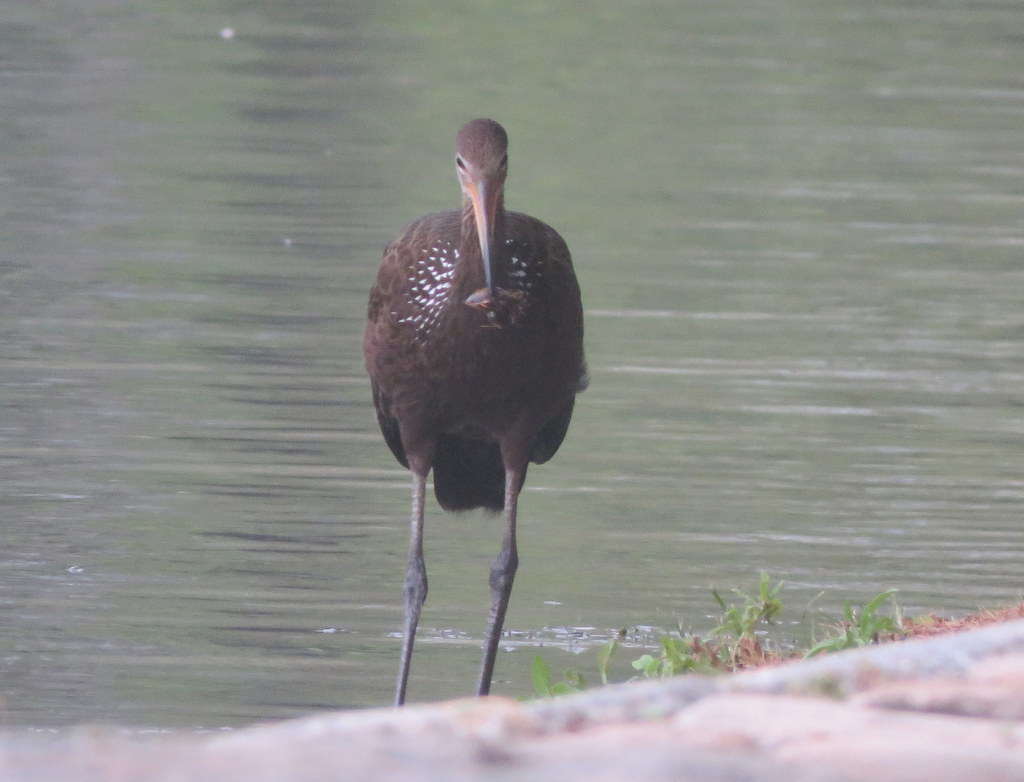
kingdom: Animalia
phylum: Chordata
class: Aves
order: Gruiformes
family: Aramidae
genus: Aramus
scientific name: Aramus guarauna
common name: Limpkin
